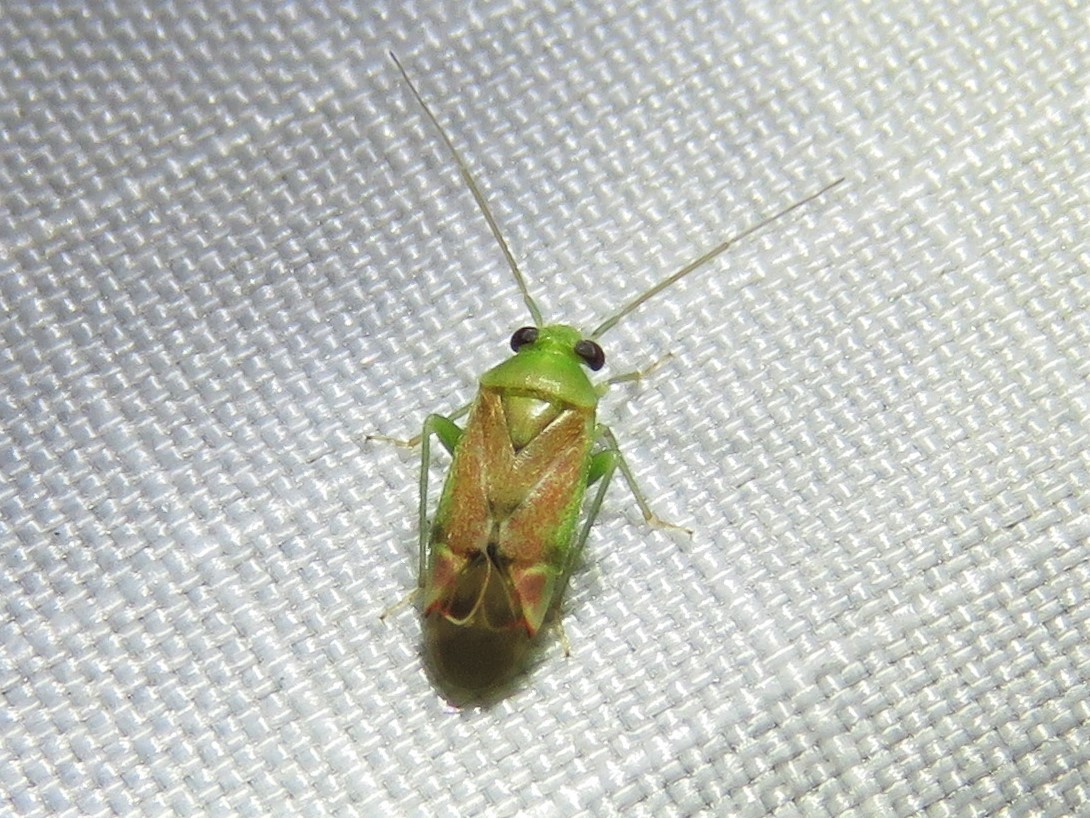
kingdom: Animalia
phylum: Arthropoda
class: Insecta
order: Hemiptera
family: Miridae
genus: Dichrooscytus
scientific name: Dichrooscytus
